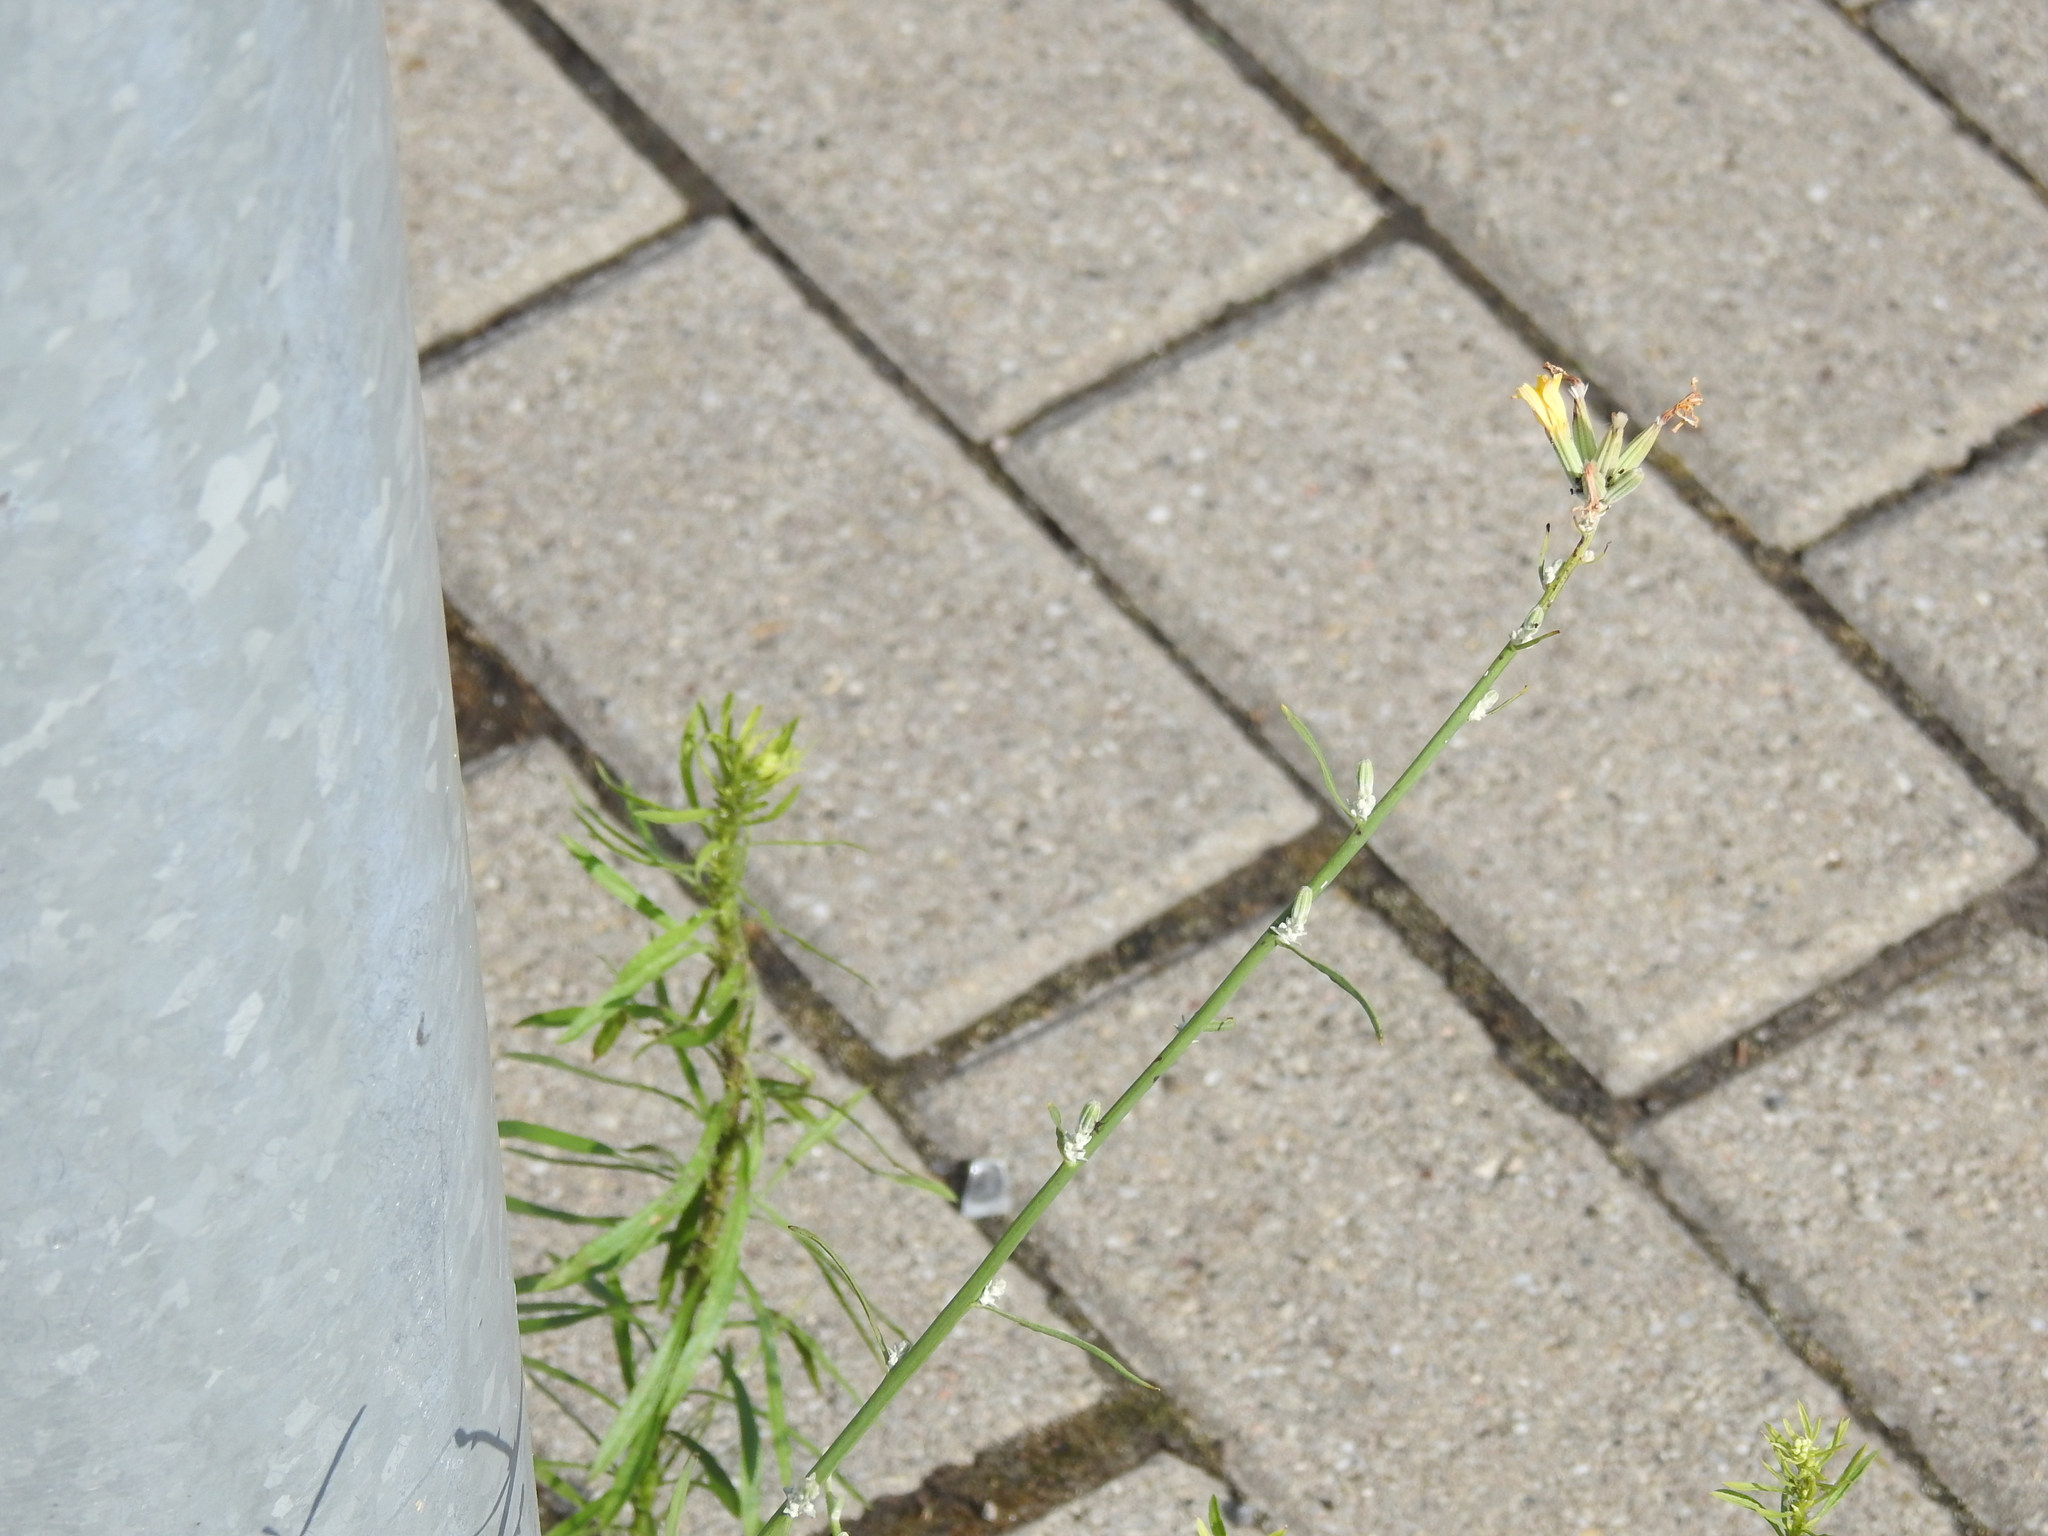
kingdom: Plantae
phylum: Tracheophyta
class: Magnoliopsida
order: Asterales
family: Asteraceae
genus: Chondrilla
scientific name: Chondrilla juncea
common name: Skeleton weed
